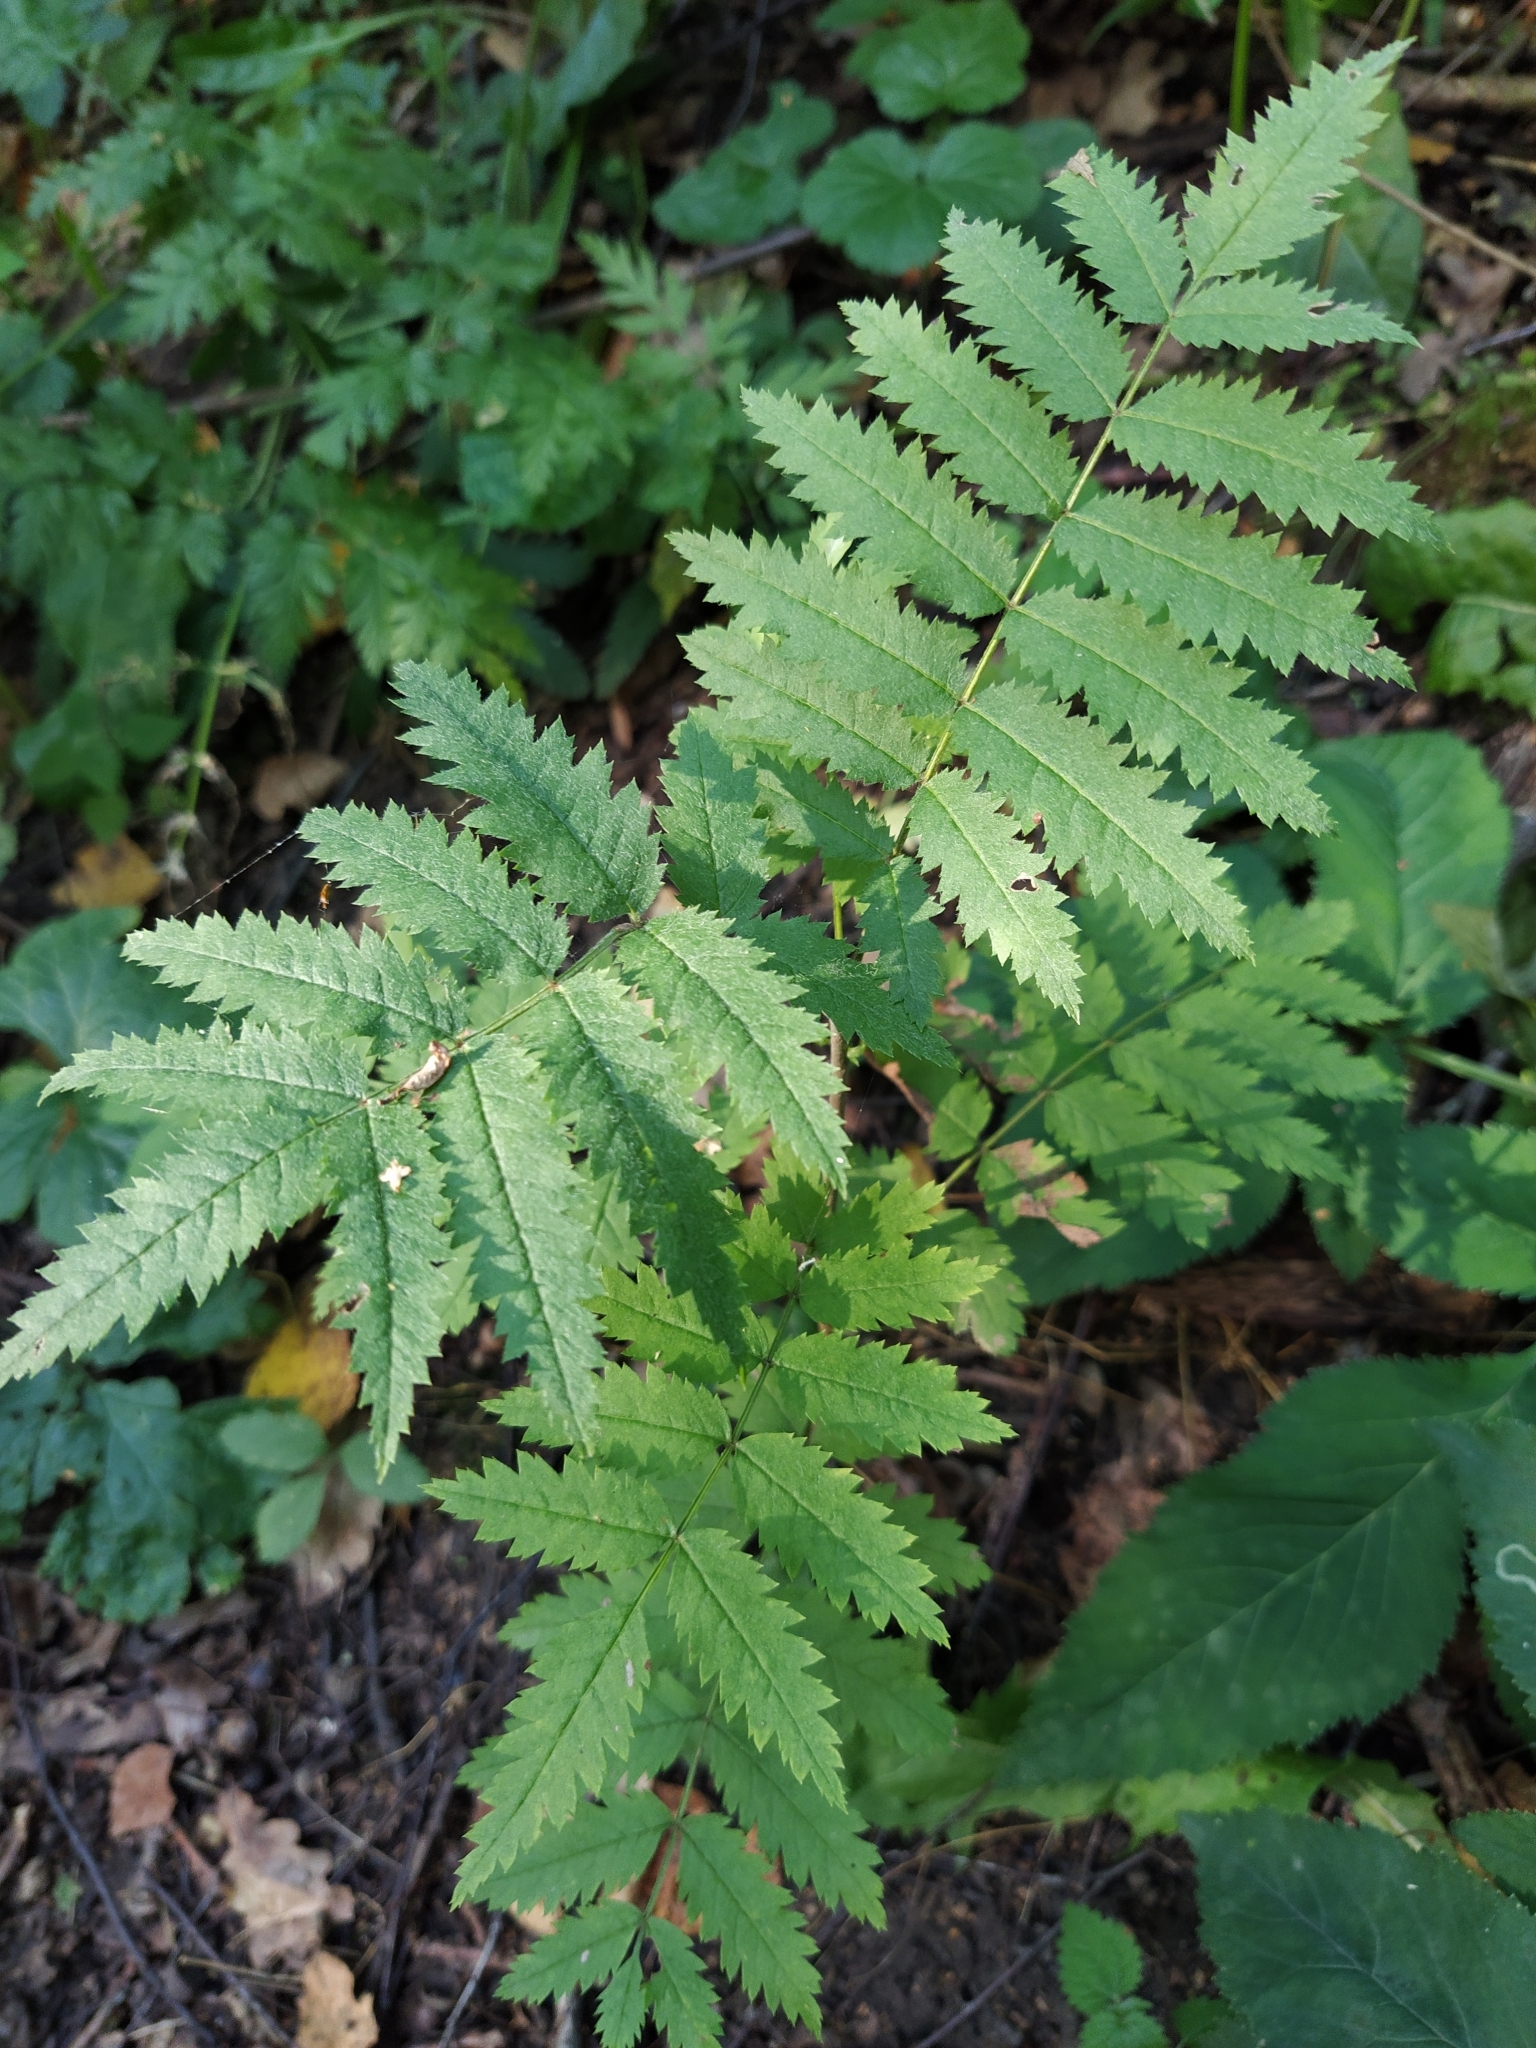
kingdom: Plantae
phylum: Tracheophyta
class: Magnoliopsida
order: Rosales
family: Rosaceae
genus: Sorbus
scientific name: Sorbus aucuparia
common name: Rowan
